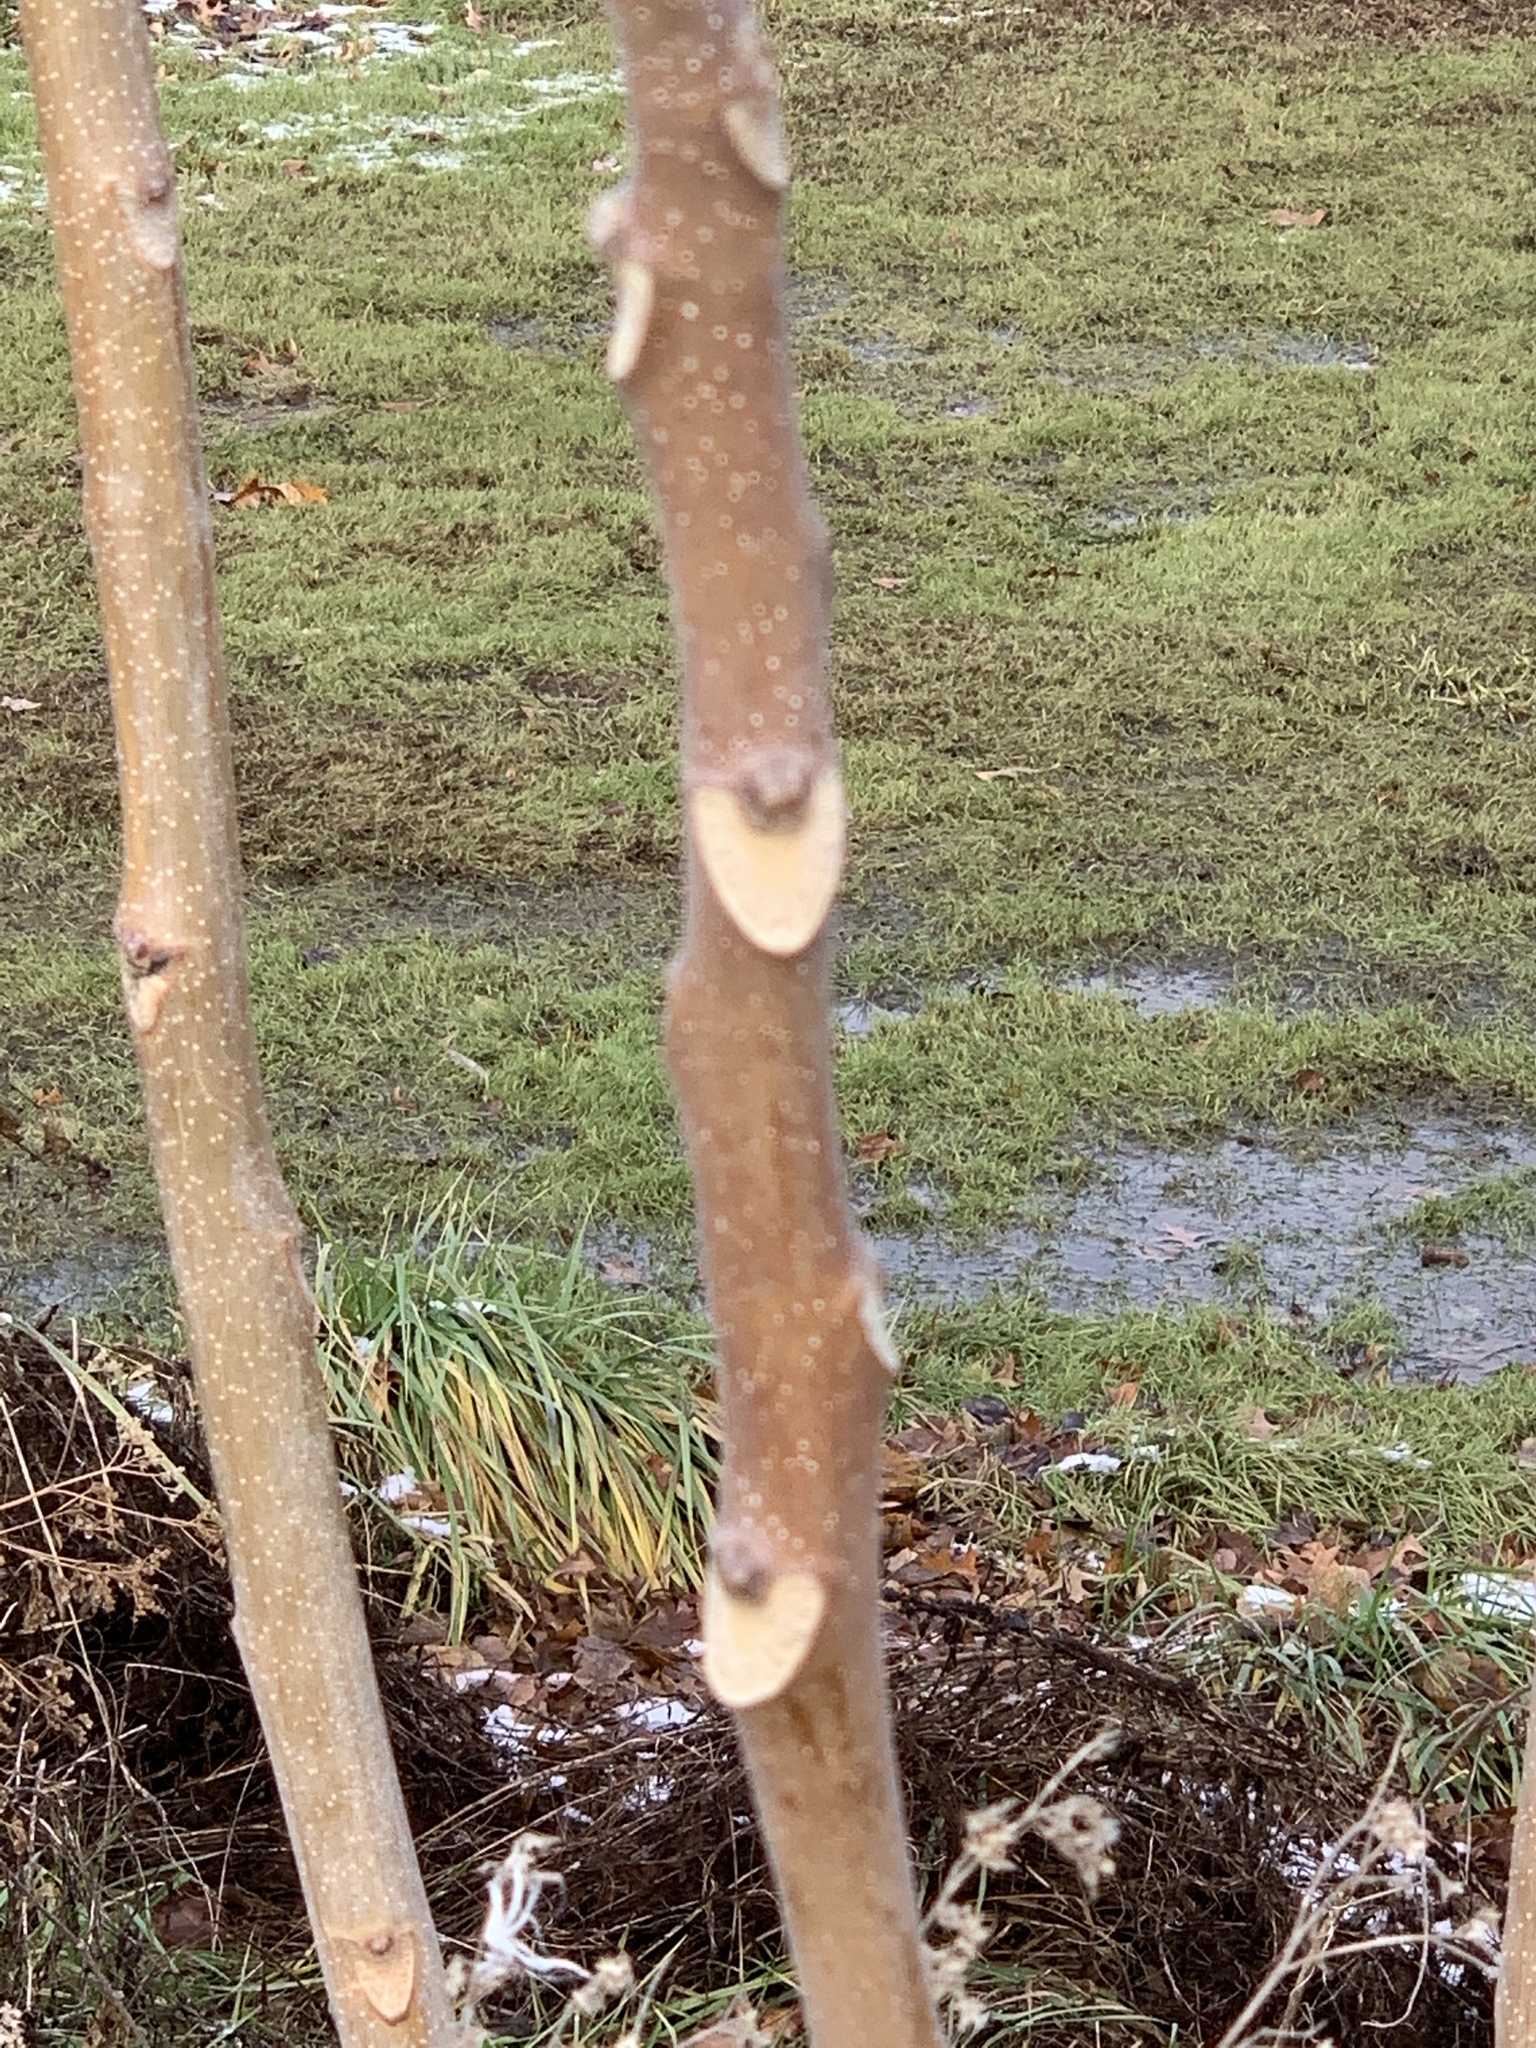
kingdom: Plantae
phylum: Tracheophyta
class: Magnoliopsida
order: Sapindales
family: Simaroubaceae
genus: Ailanthus
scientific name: Ailanthus altissima
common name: Tree-of-heaven
